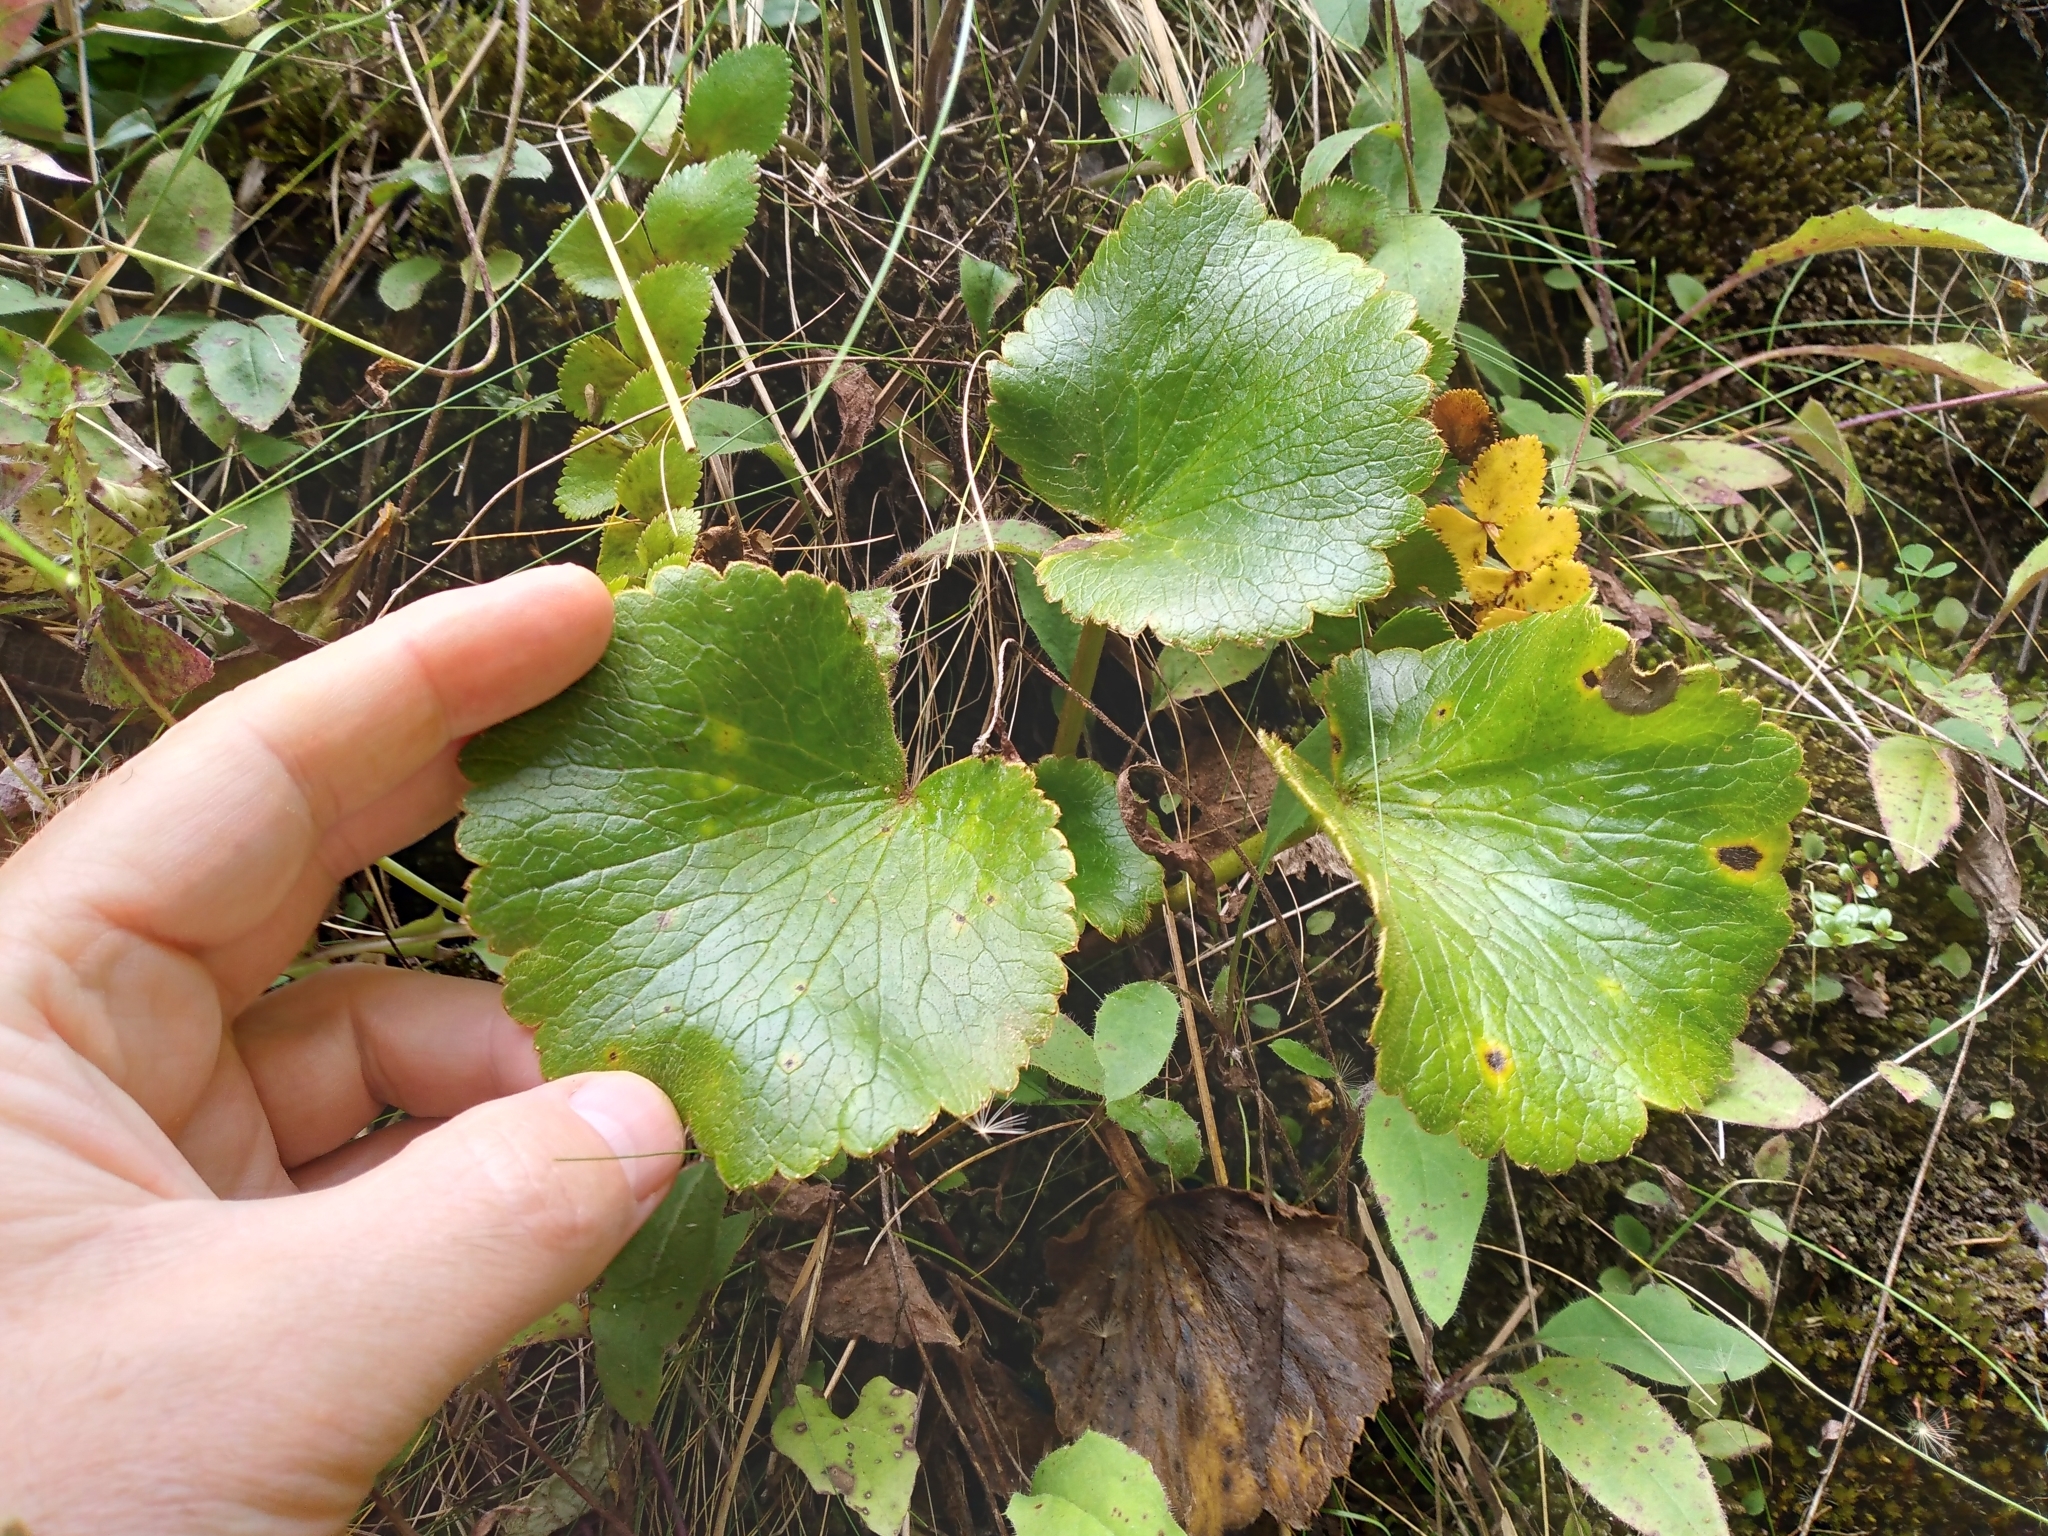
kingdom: Plantae
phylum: Tracheophyta
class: Magnoliopsida
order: Ranunculales
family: Ranunculaceae
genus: Ranunculus
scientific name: Ranunculus insignis
